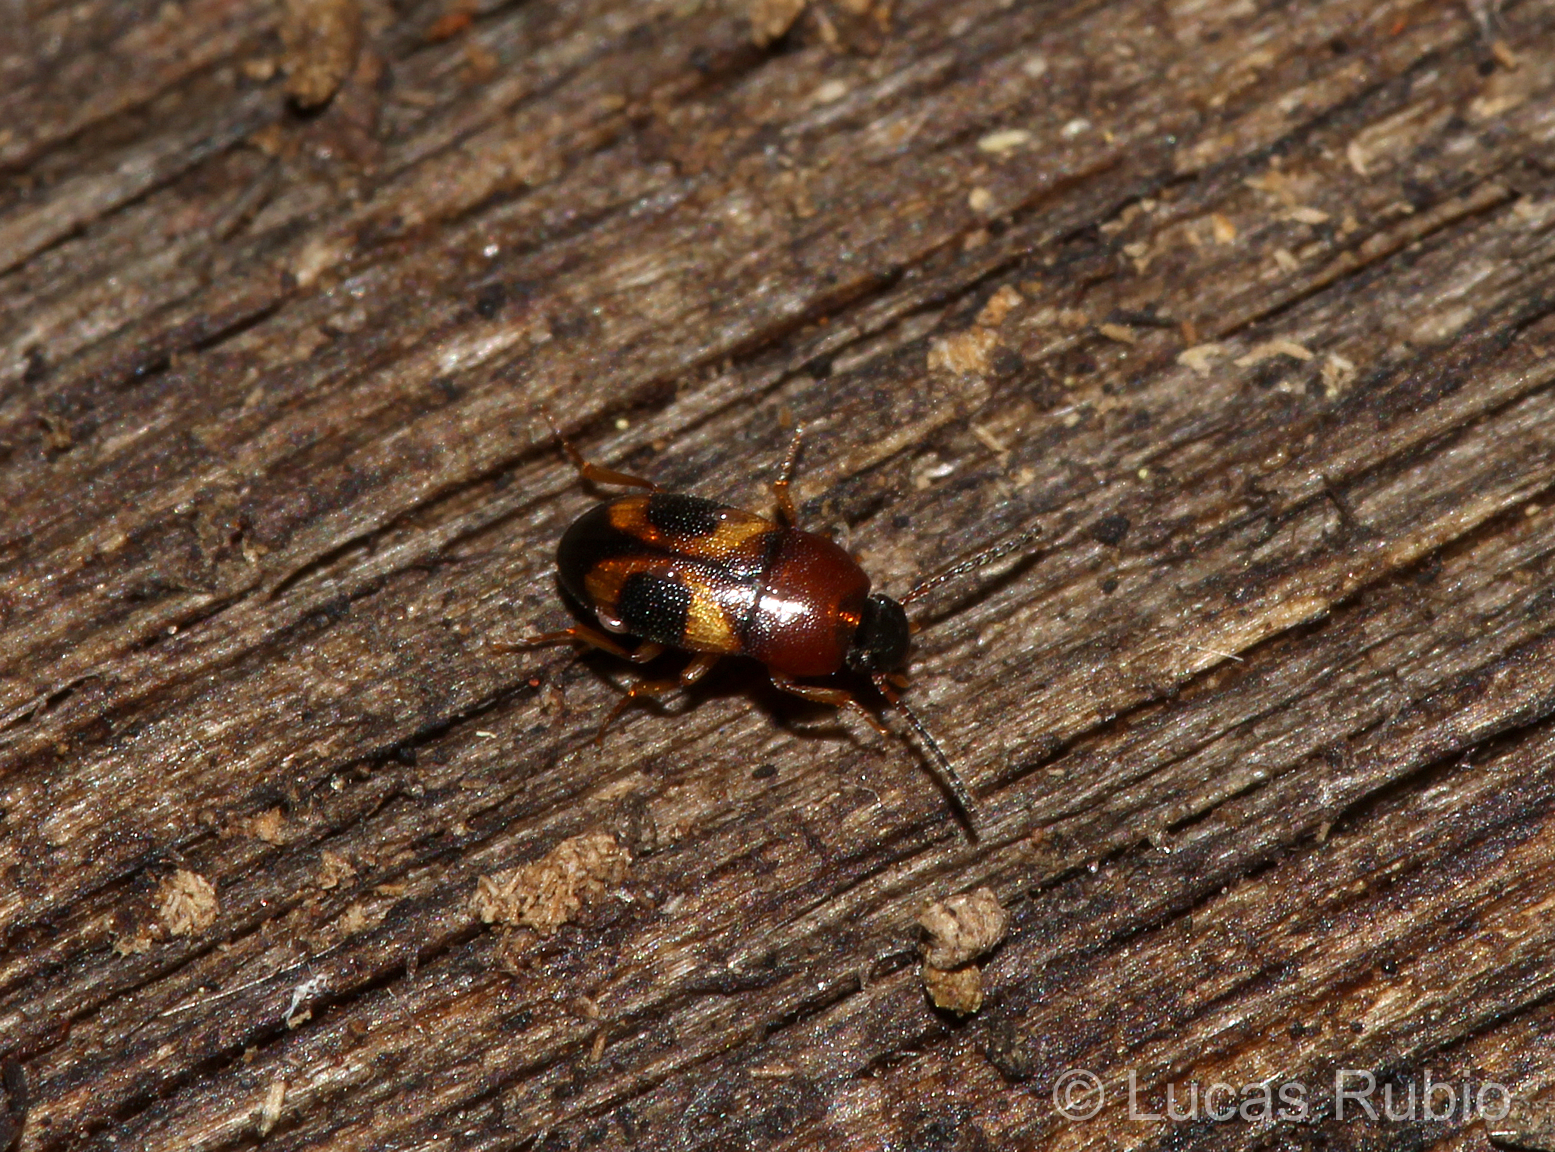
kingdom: Animalia
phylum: Arthropoda
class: Insecta
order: Coleoptera
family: Tenebrionidae
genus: Poecilocrypticus
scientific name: Poecilocrypticus formicophilus
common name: Darkling beetle
